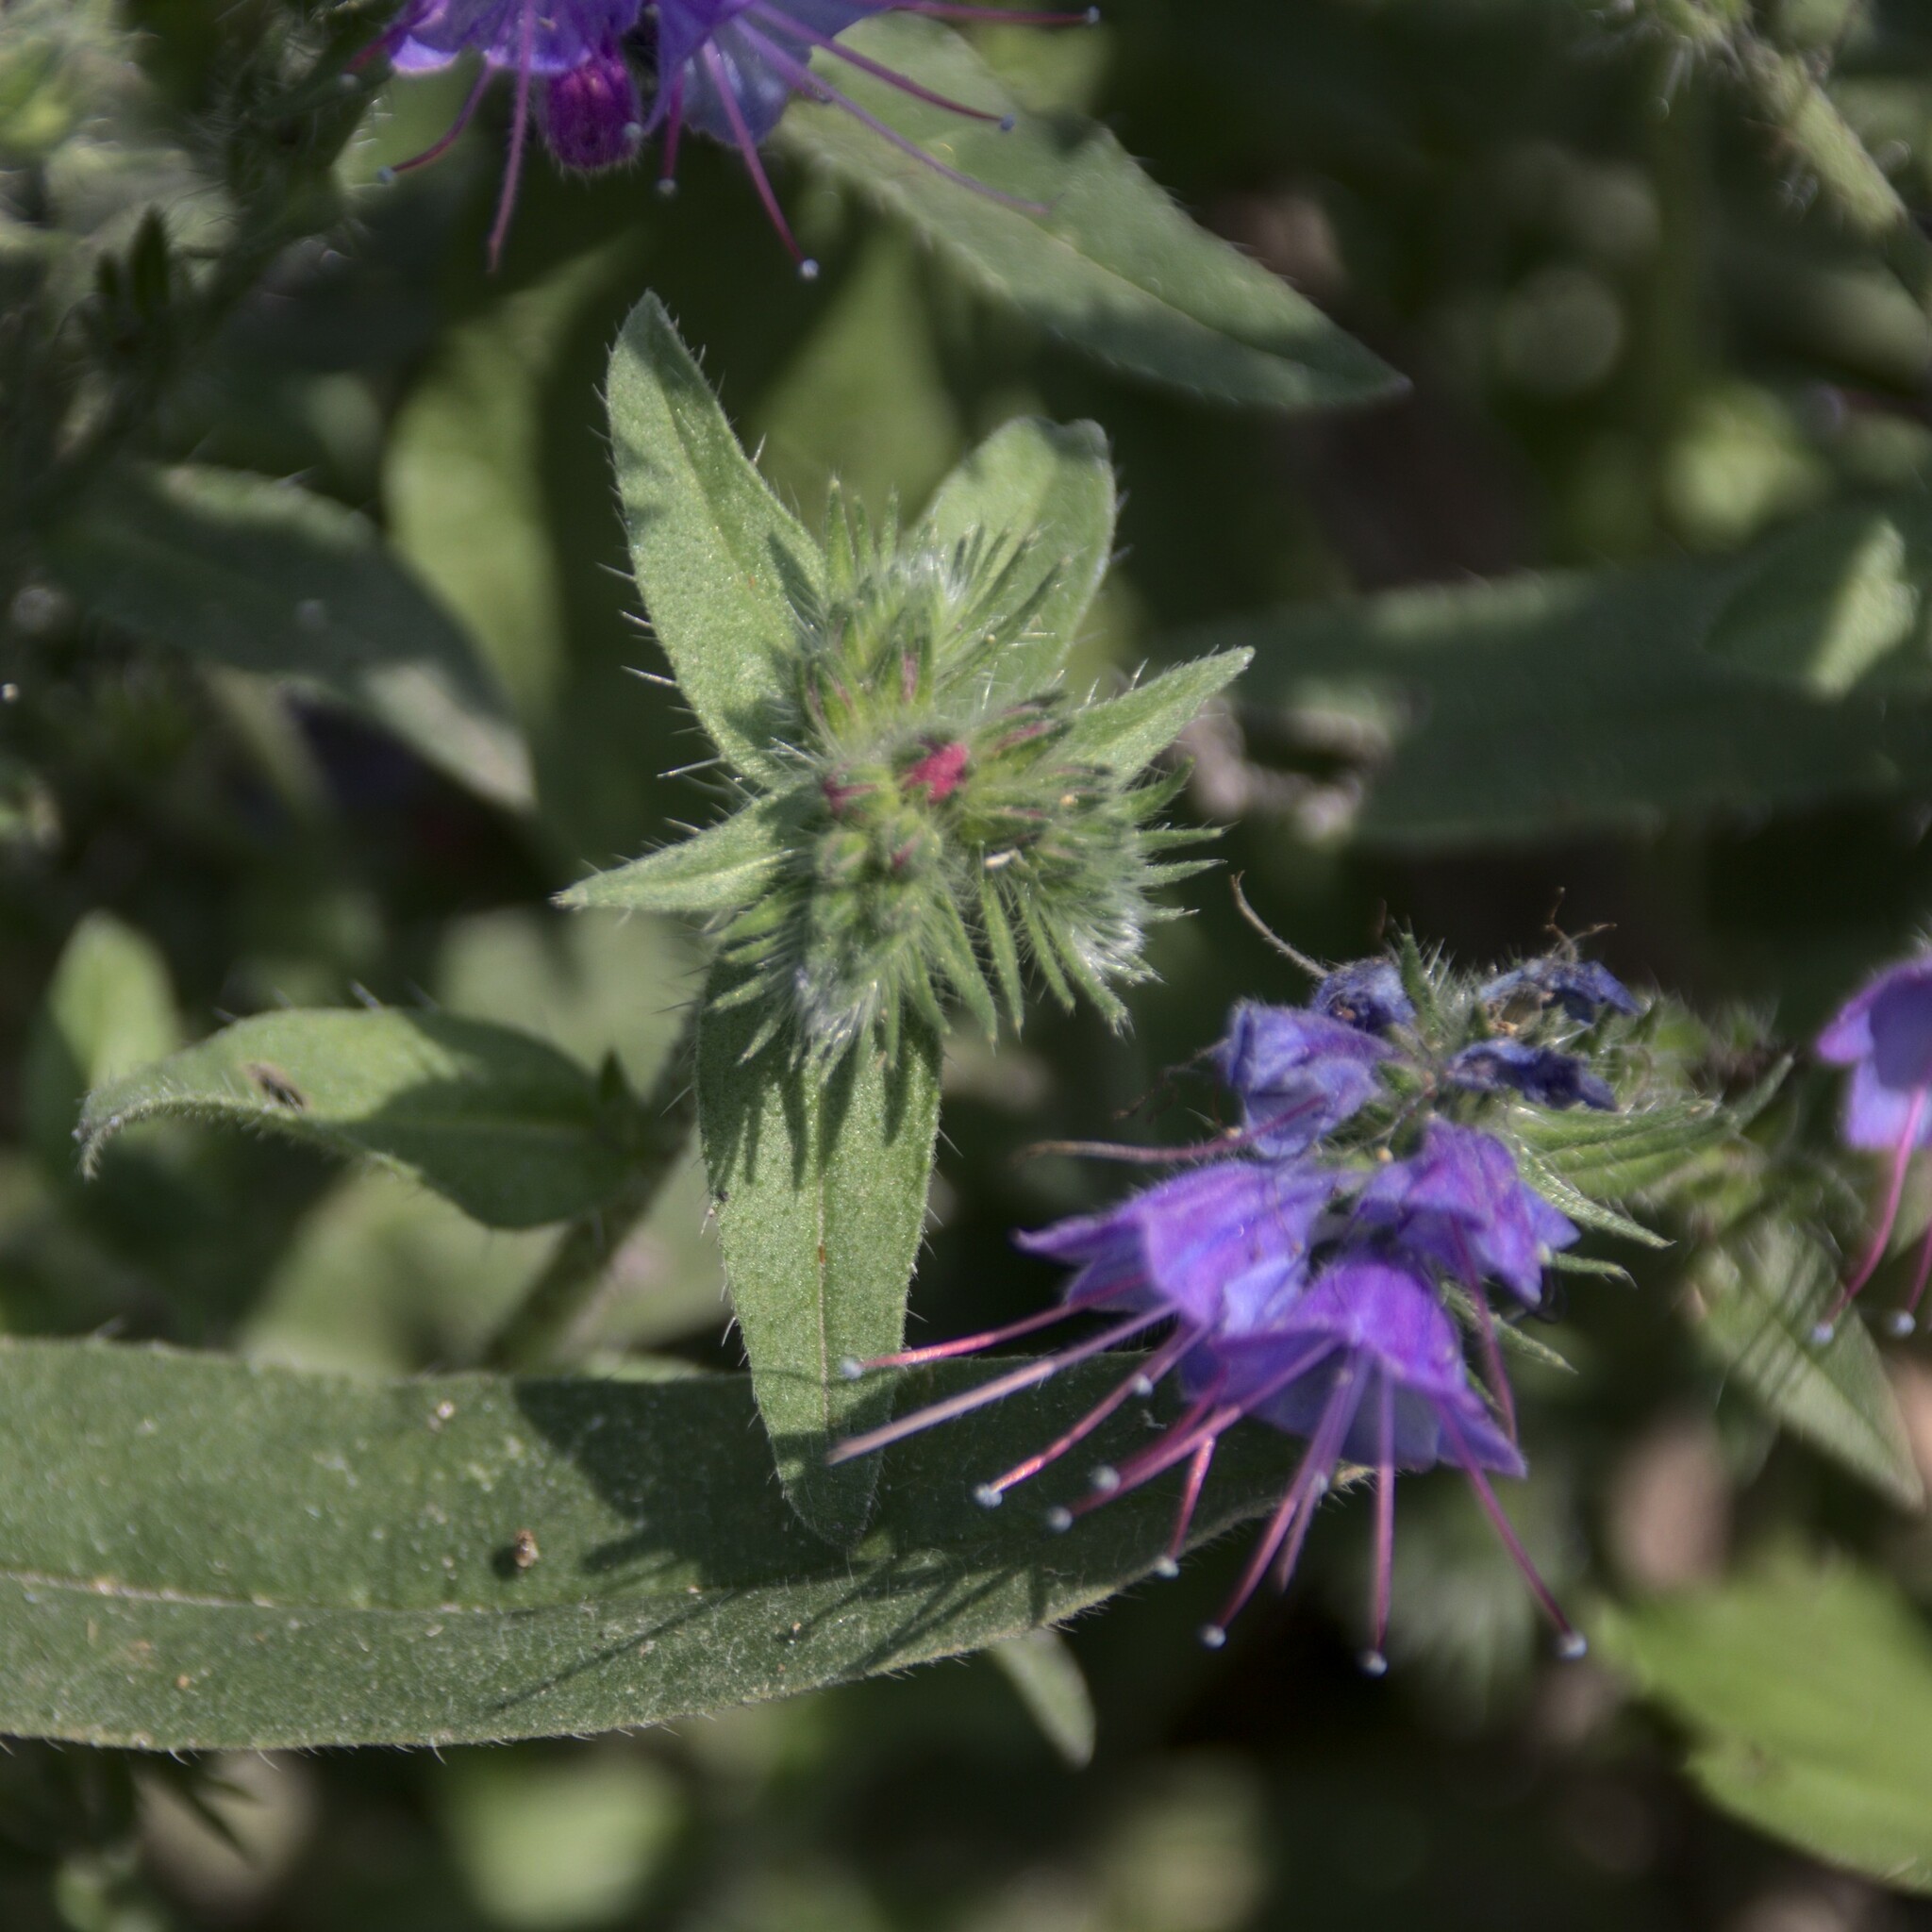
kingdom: Plantae
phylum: Tracheophyta
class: Magnoliopsida
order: Boraginales
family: Boraginaceae
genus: Echium
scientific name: Echium vulgare
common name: Common viper's bugloss
